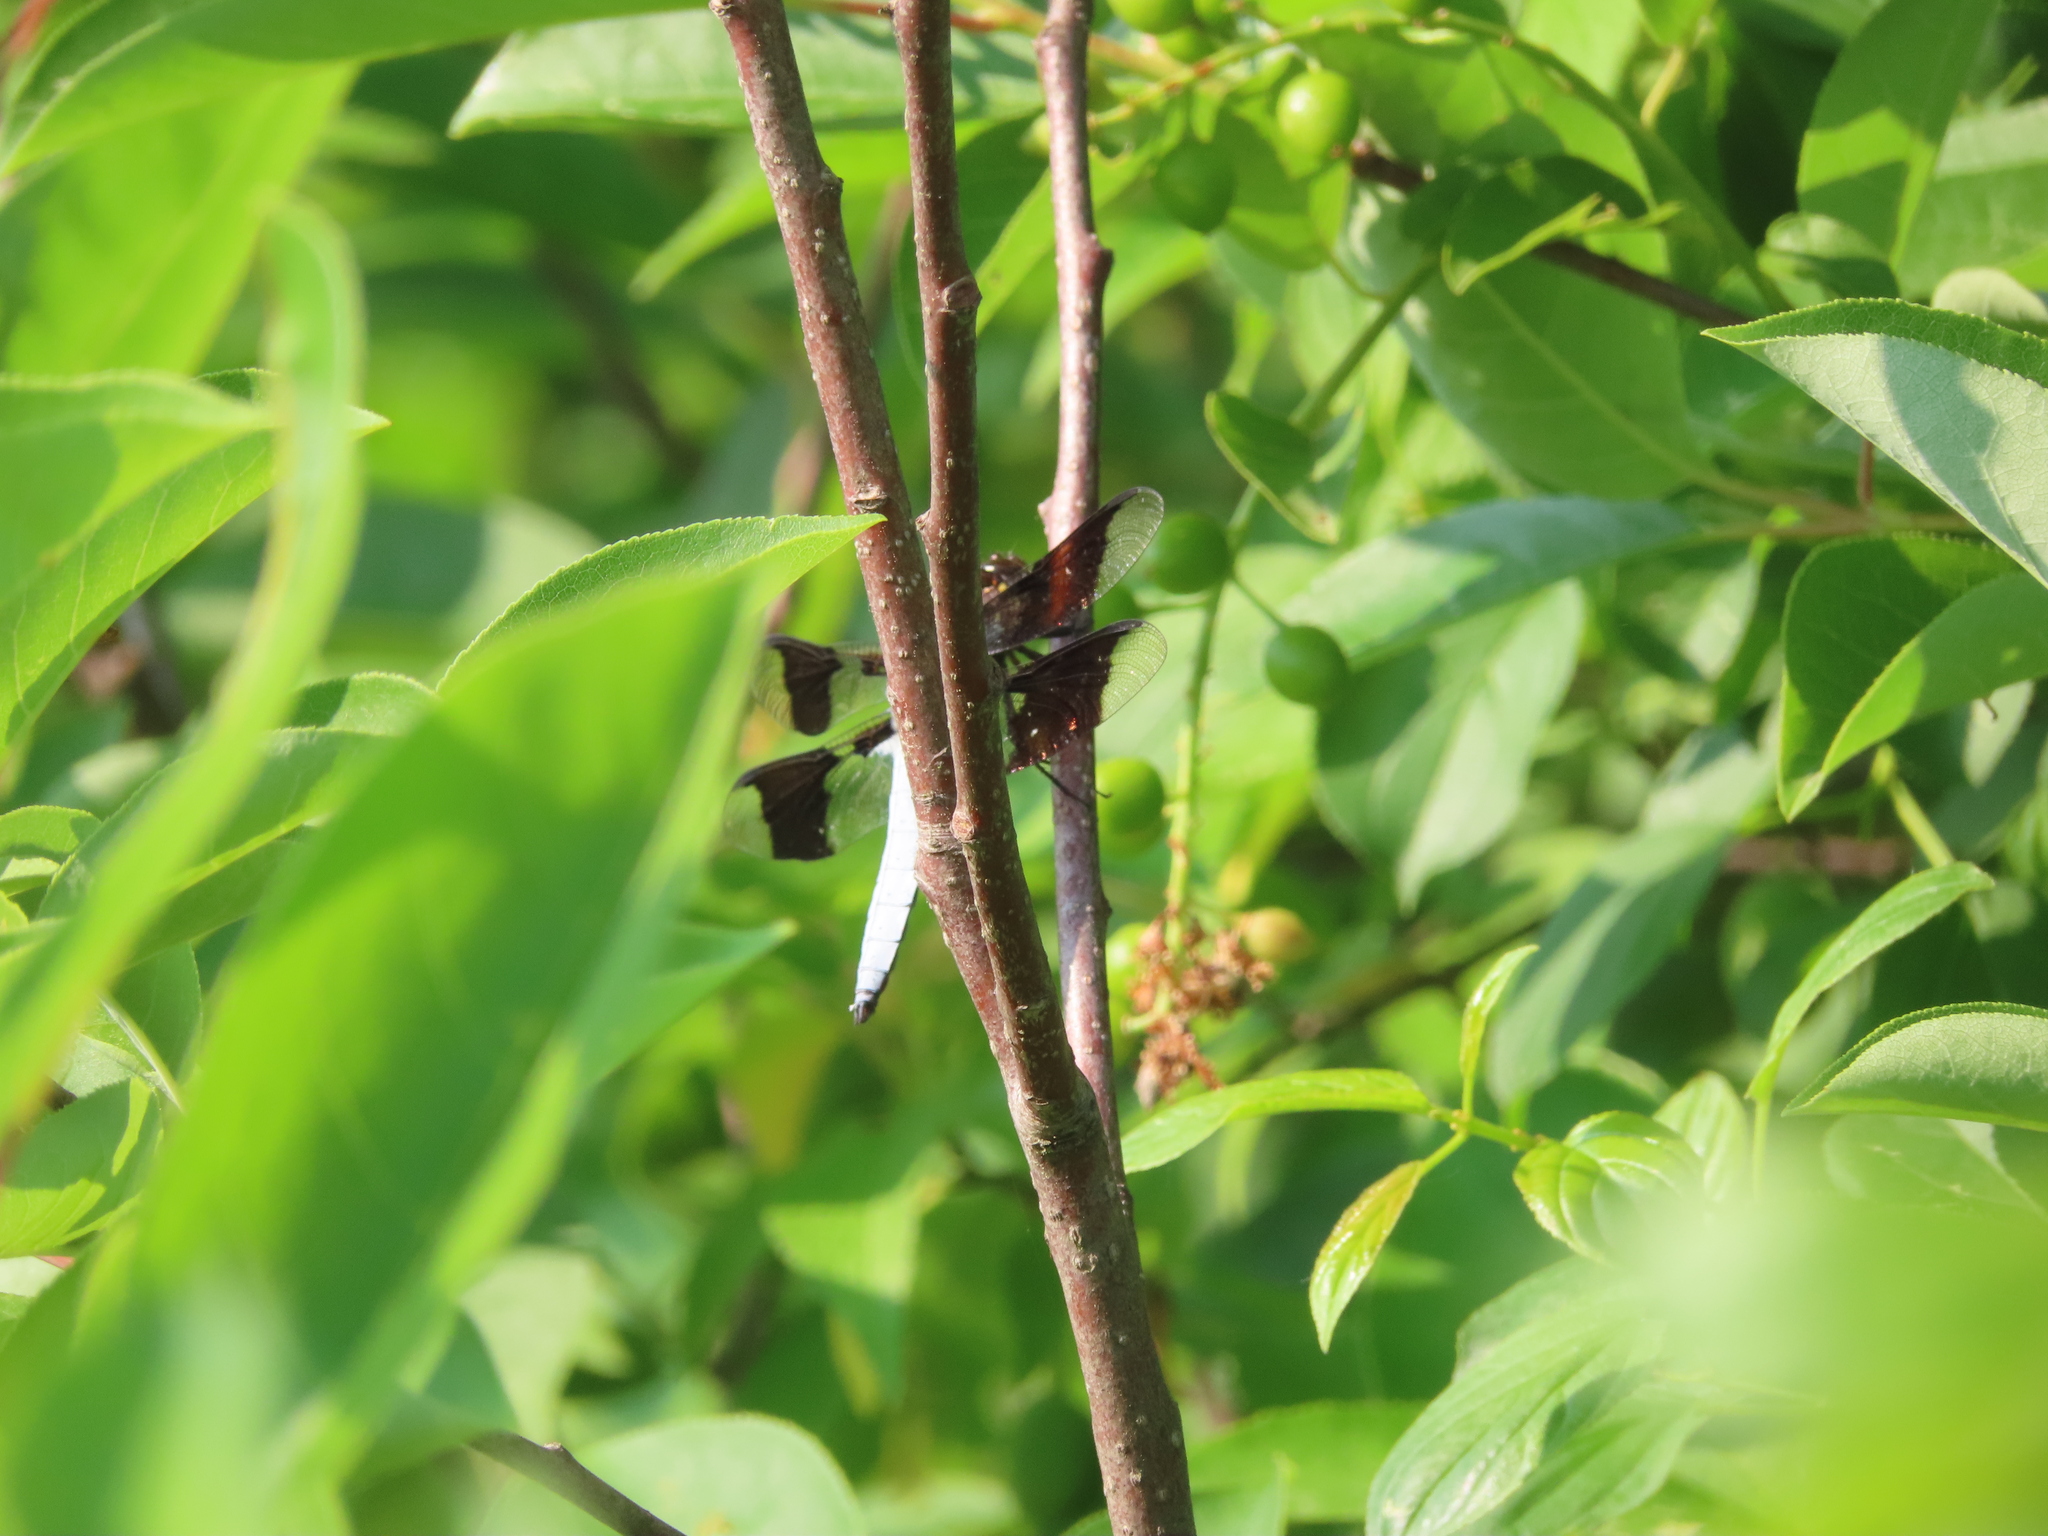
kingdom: Animalia
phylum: Arthropoda
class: Insecta
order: Odonata
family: Libellulidae
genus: Plathemis
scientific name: Plathemis lydia
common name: Common whitetail
